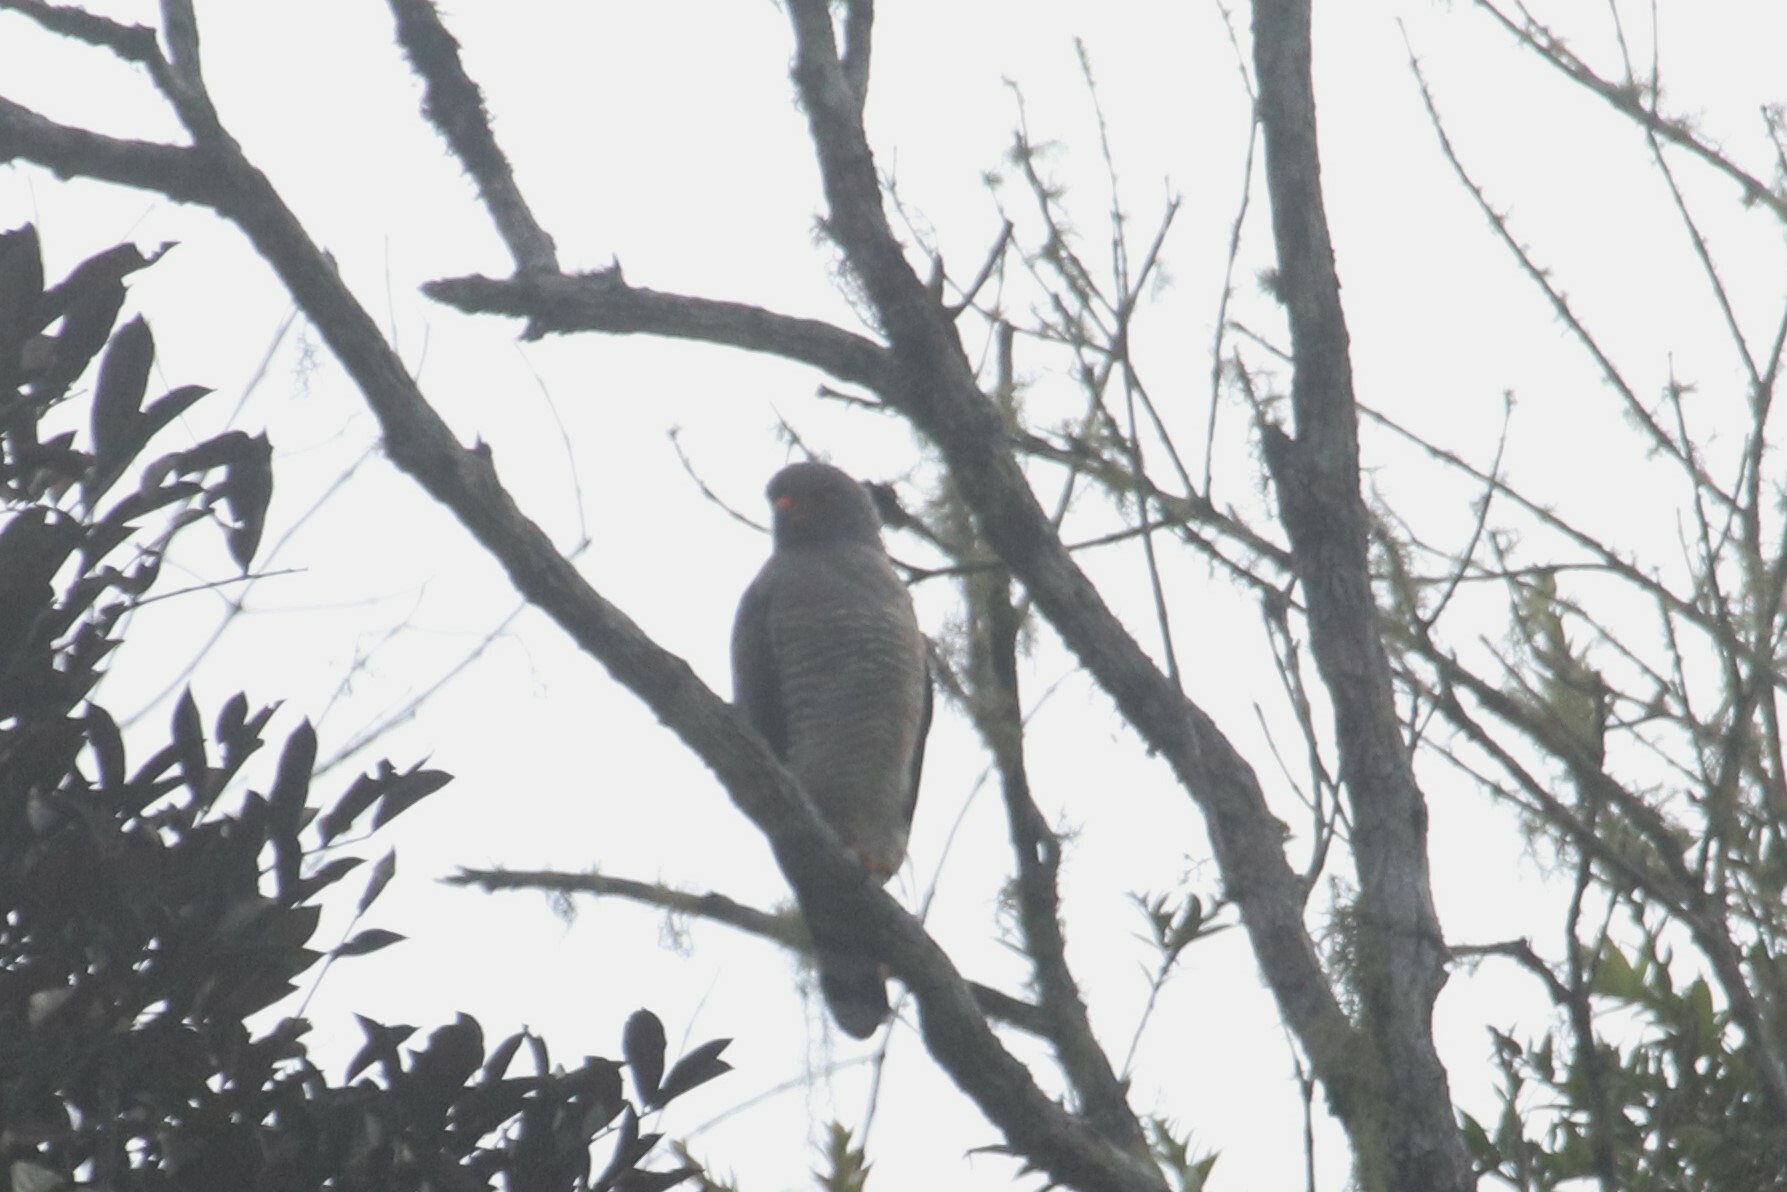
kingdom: Animalia
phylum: Chordata
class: Aves
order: Accipitriformes
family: Accipitridae
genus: Rupornis
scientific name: Rupornis magnirostris
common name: Roadside hawk
